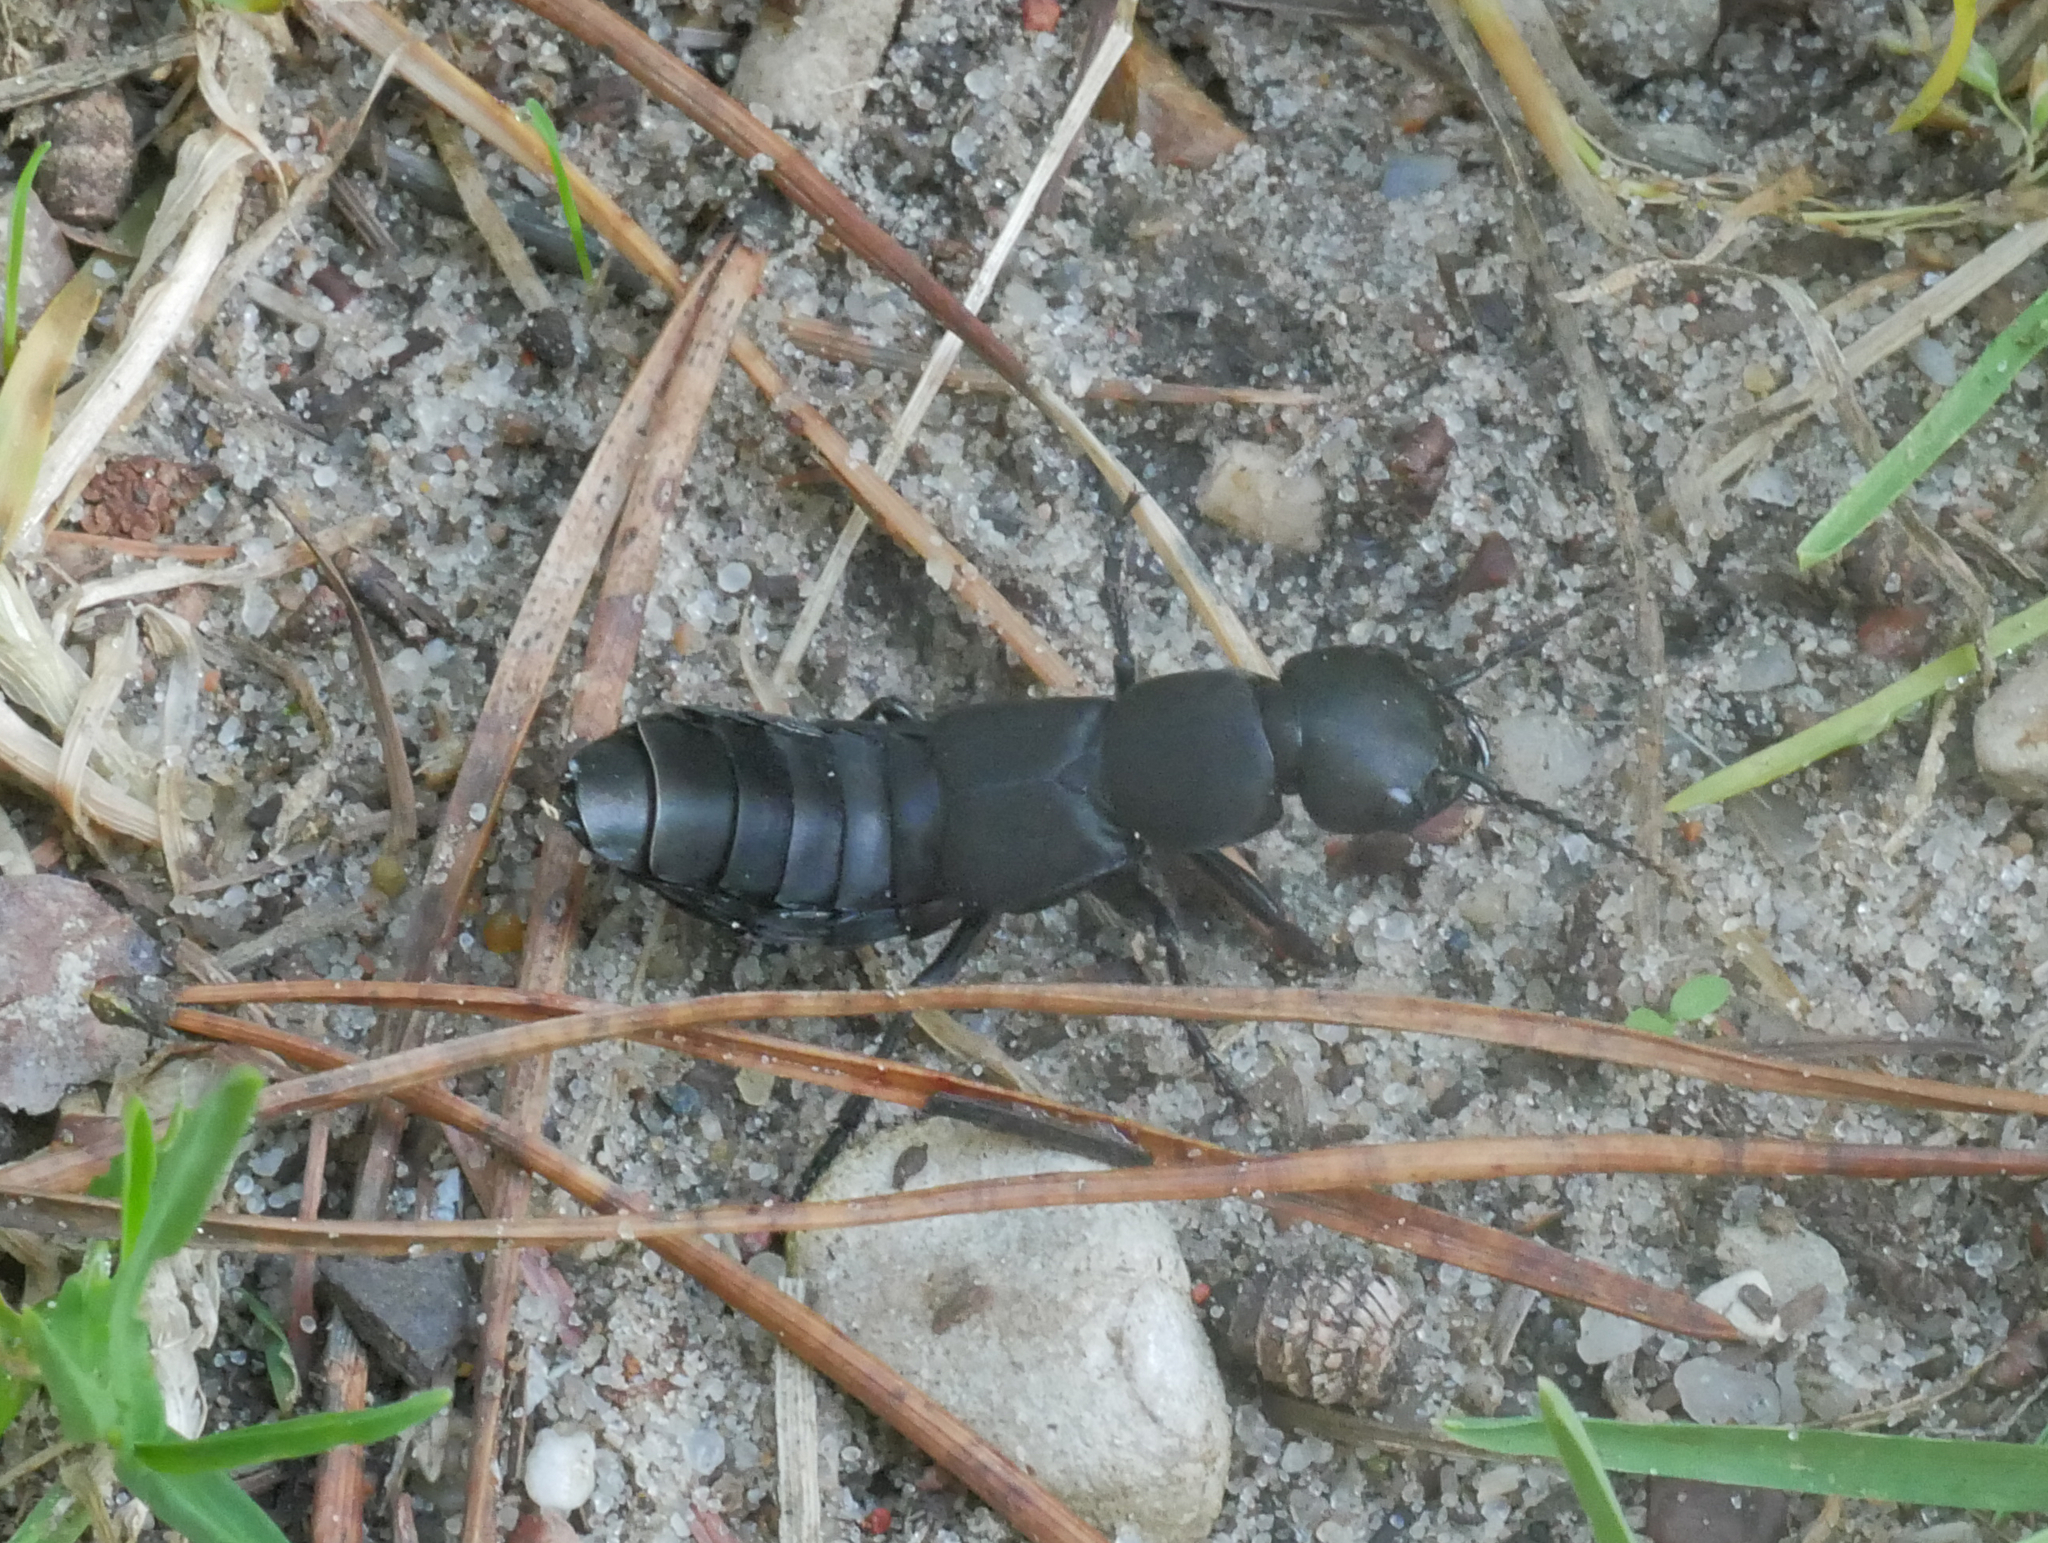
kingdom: Animalia
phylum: Arthropoda
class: Insecta
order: Coleoptera
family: Staphylinidae
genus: Ocypus
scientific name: Ocypus olens
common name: Devil's coach-horse
